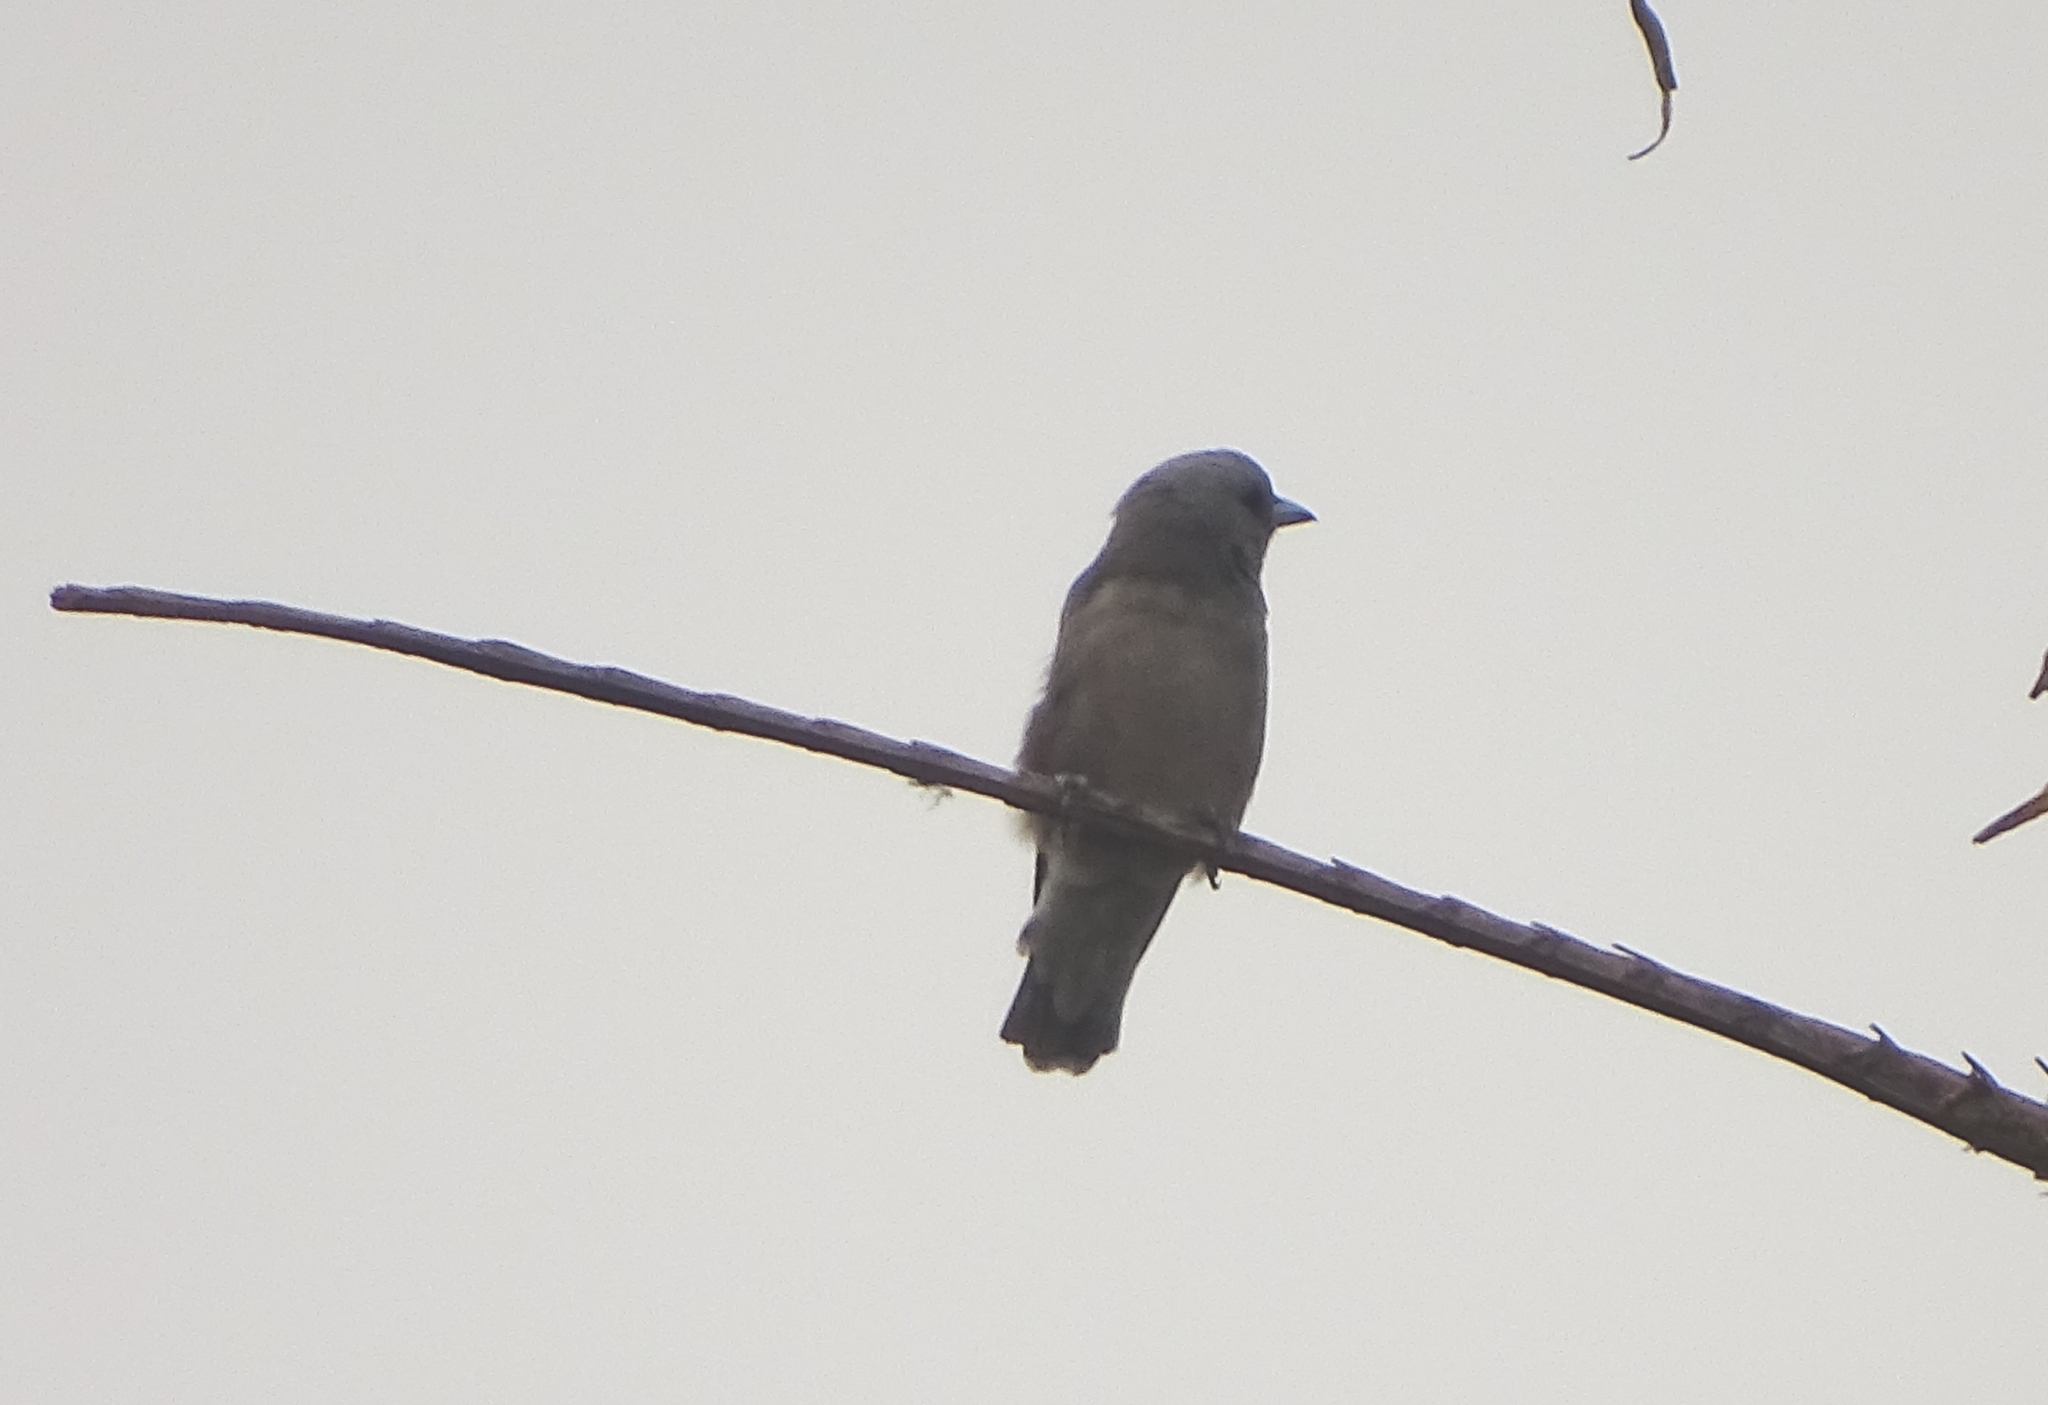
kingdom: Animalia
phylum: Chordata
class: Aves
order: Passeriformes
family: Artamidae
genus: Artamus
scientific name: Artamus fuscus
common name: Ashy woodswallow
